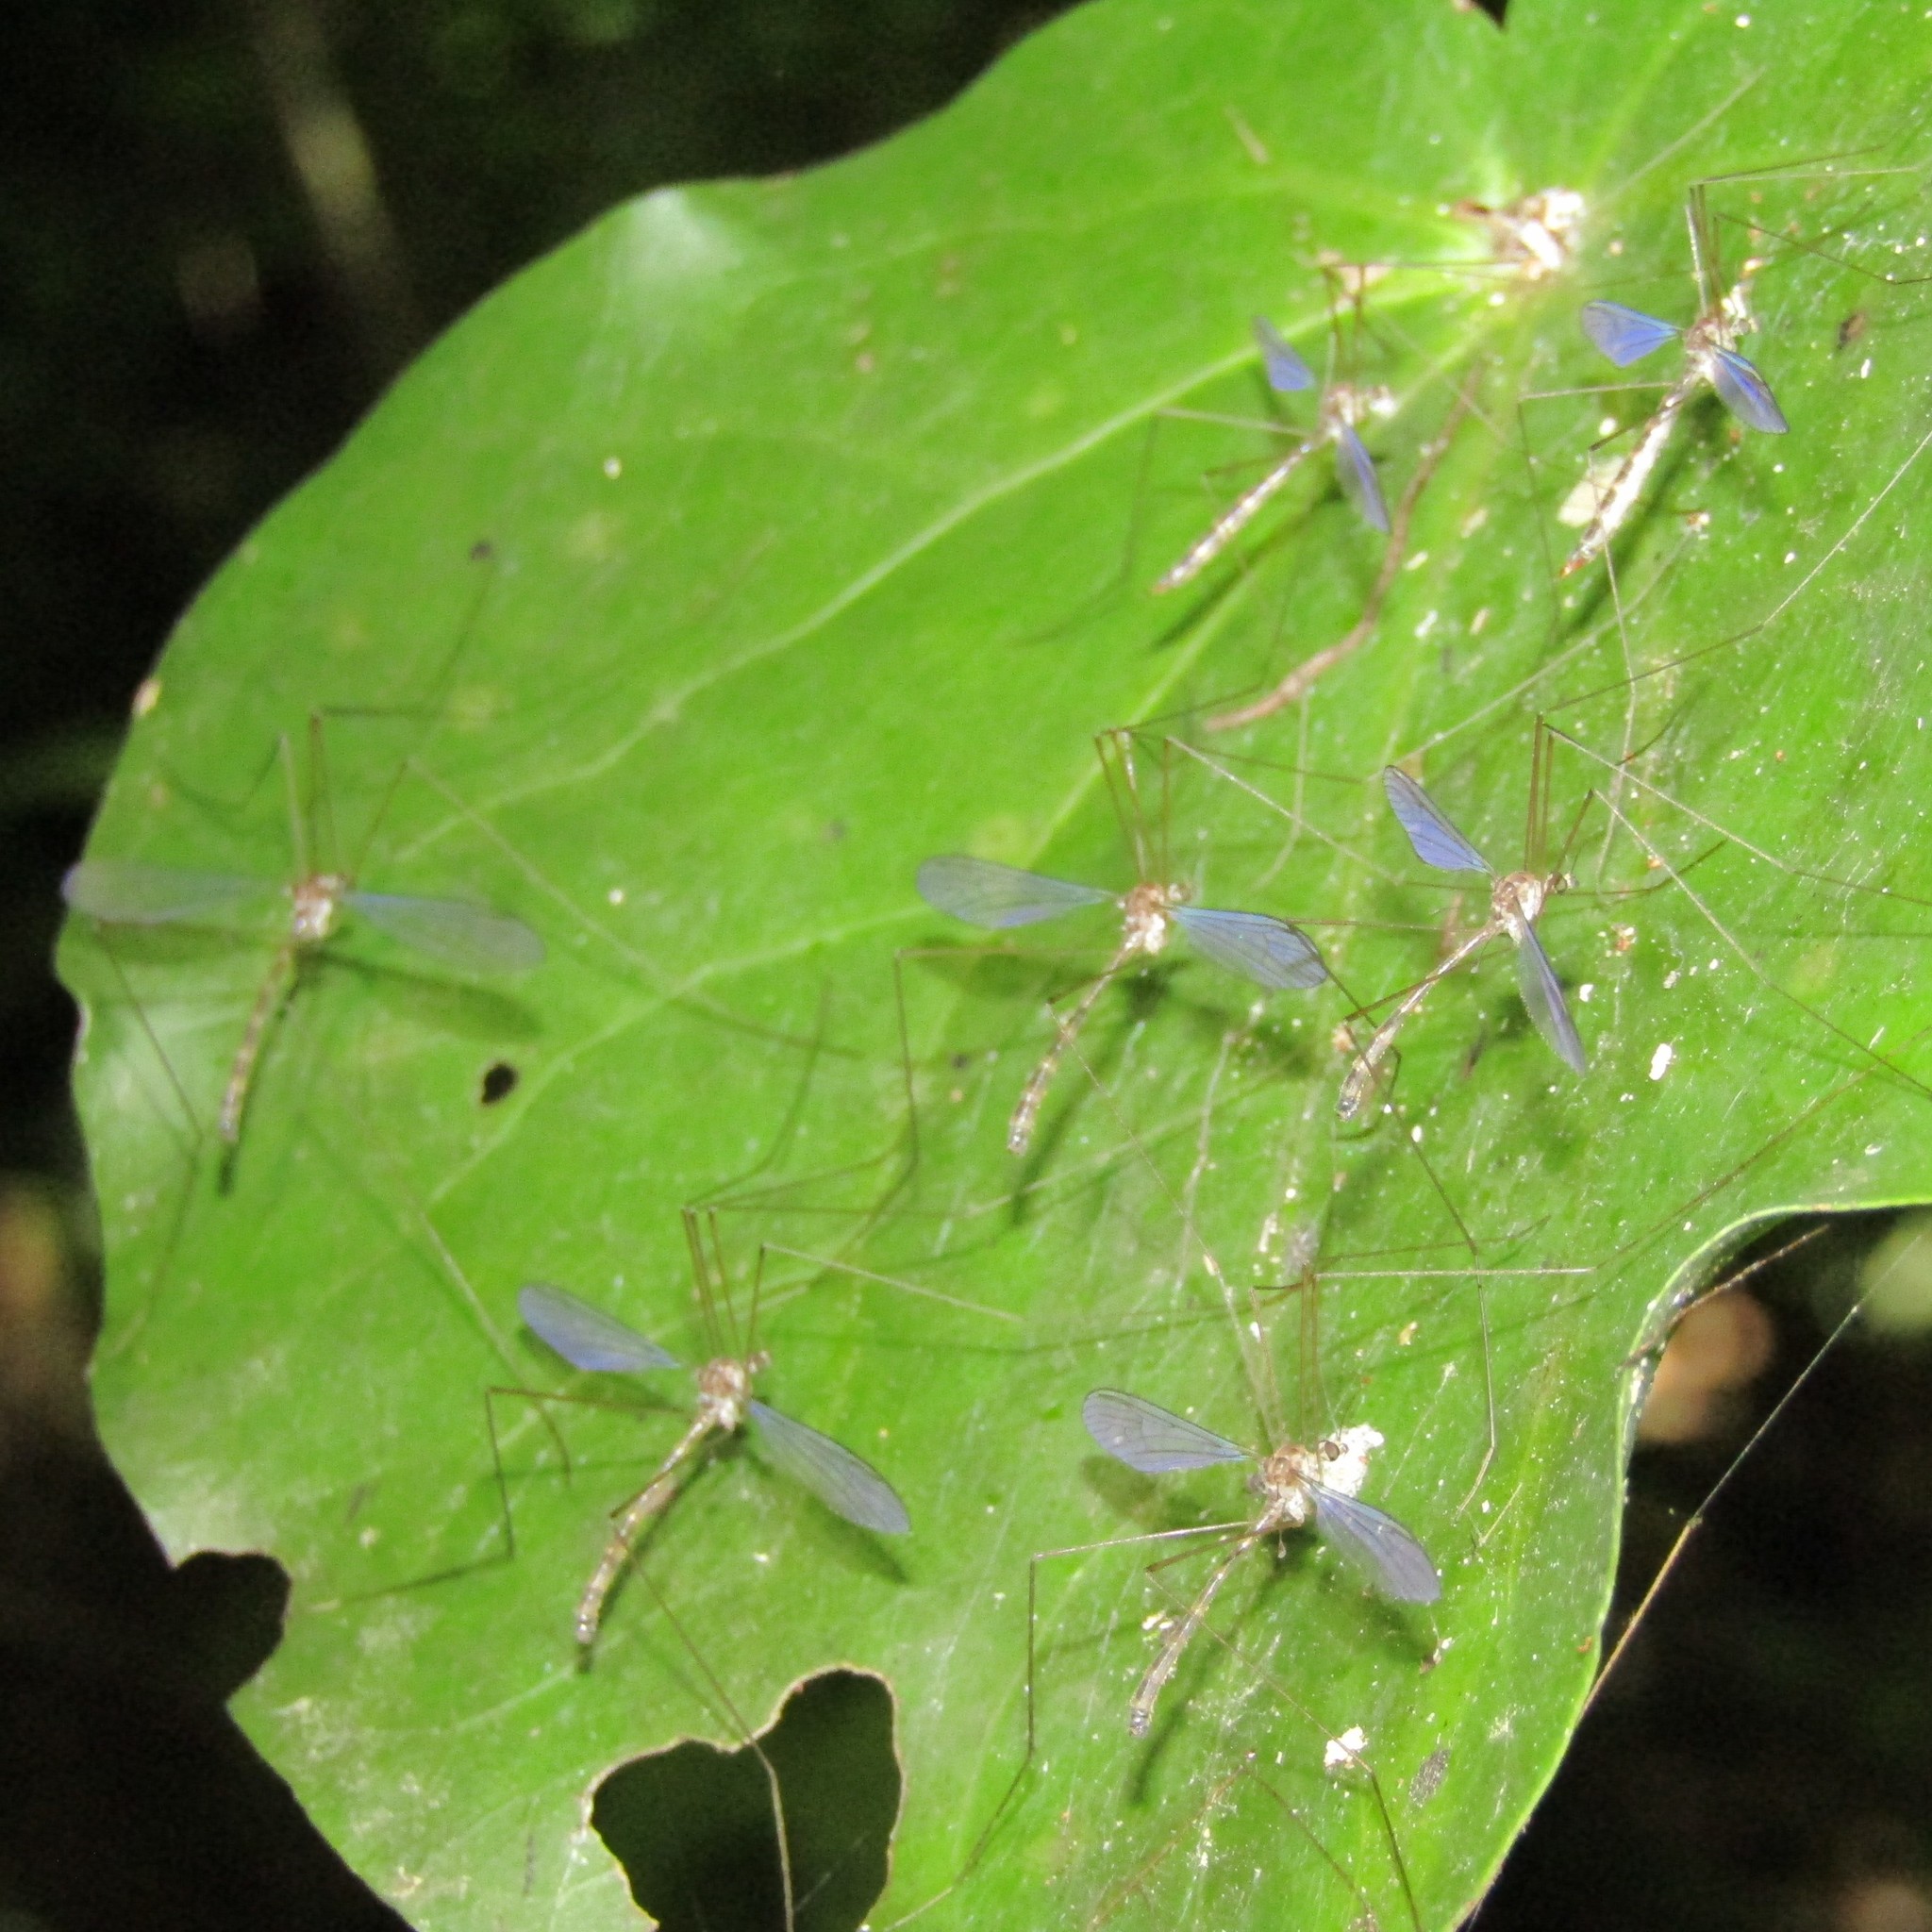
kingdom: Animalia
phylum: Arthropoda
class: Insecta
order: Diptera
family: Limoniidae
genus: Limnophilella
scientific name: Limnophilella delicatula
